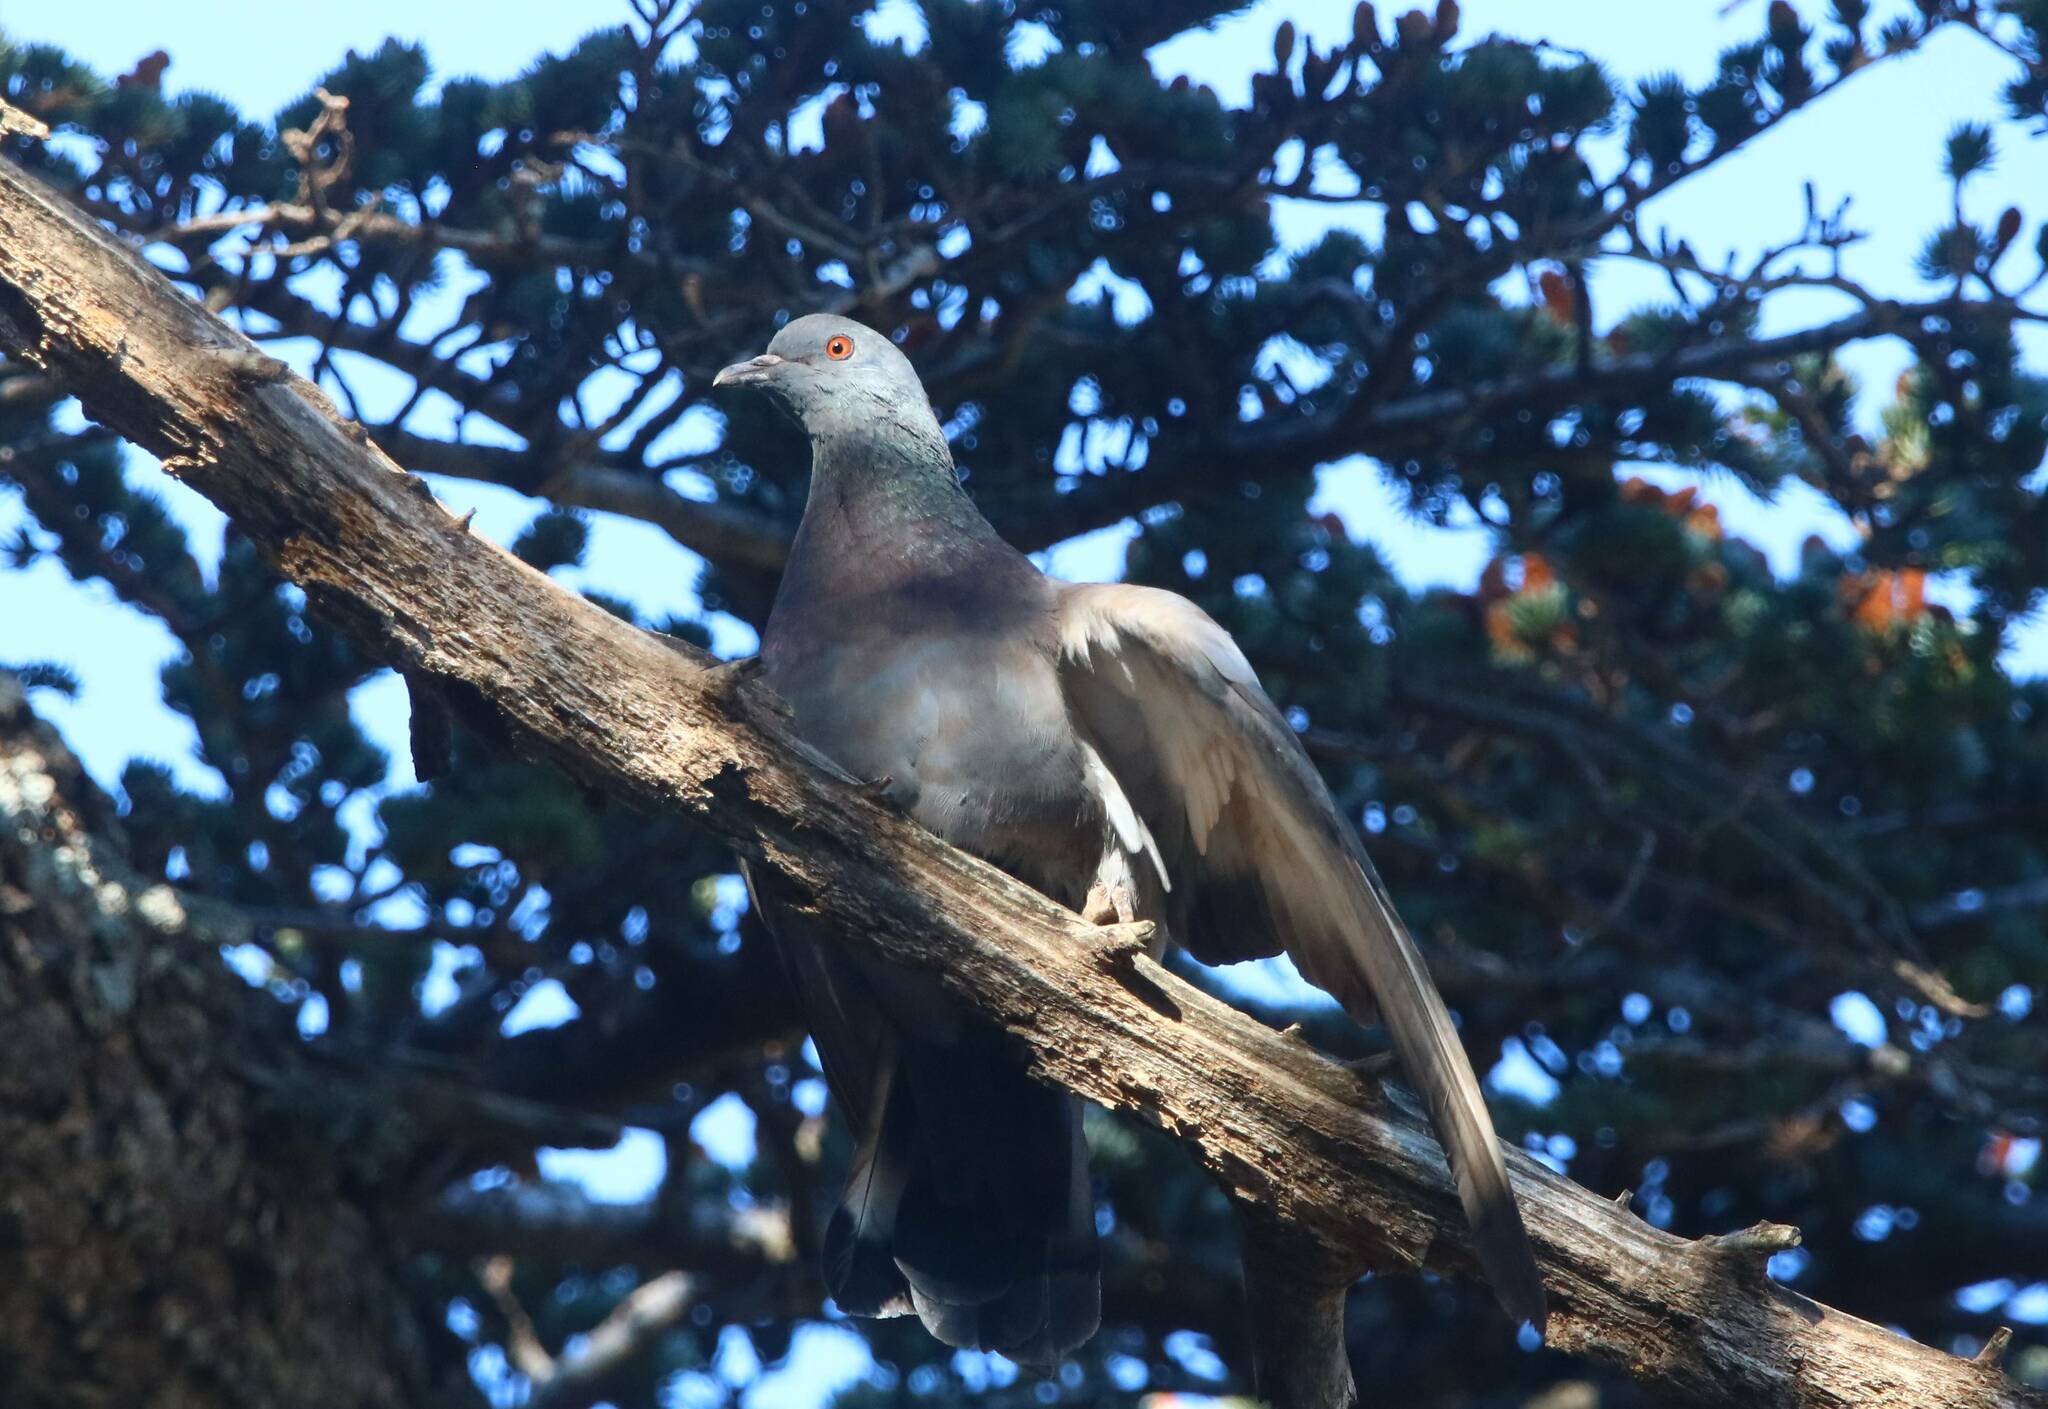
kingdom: Animalia
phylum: Chordata
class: Aves
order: Columbiformes
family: Columbidae
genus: Columba
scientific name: Columba livia
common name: Rock pigeon
